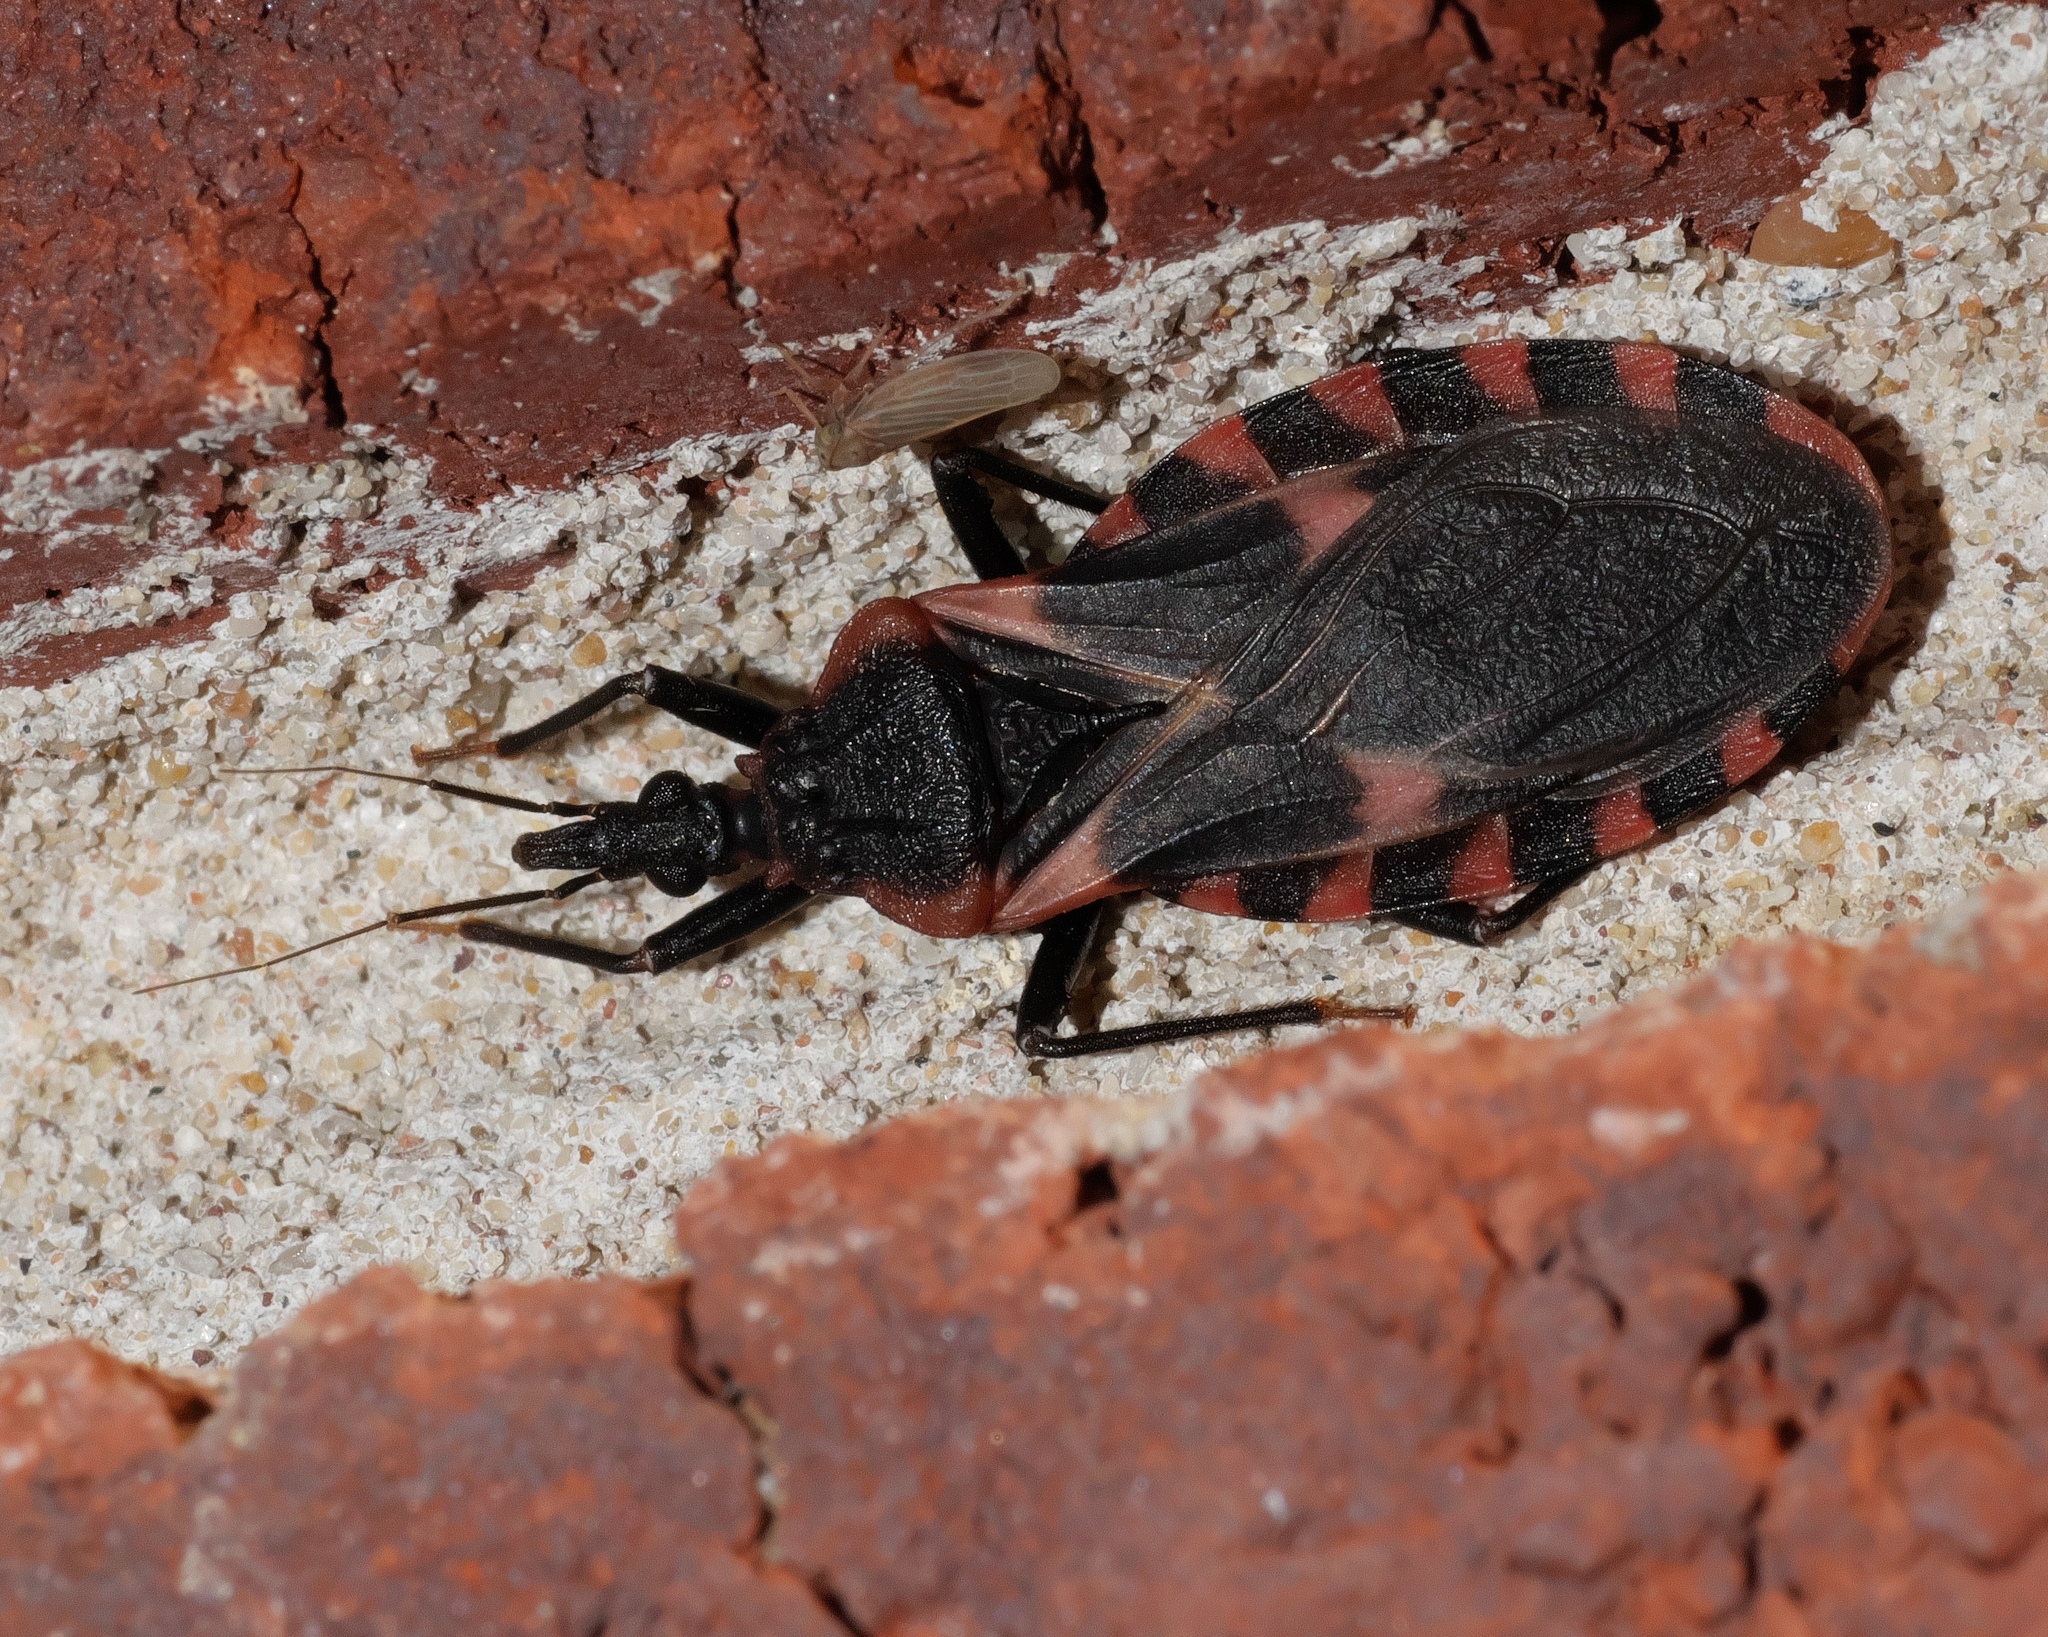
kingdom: Animalia
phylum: Arthropoda
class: Insecta
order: Hemiptera
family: Reduviidae
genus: Triatoma
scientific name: Triatoma sanguisuga
